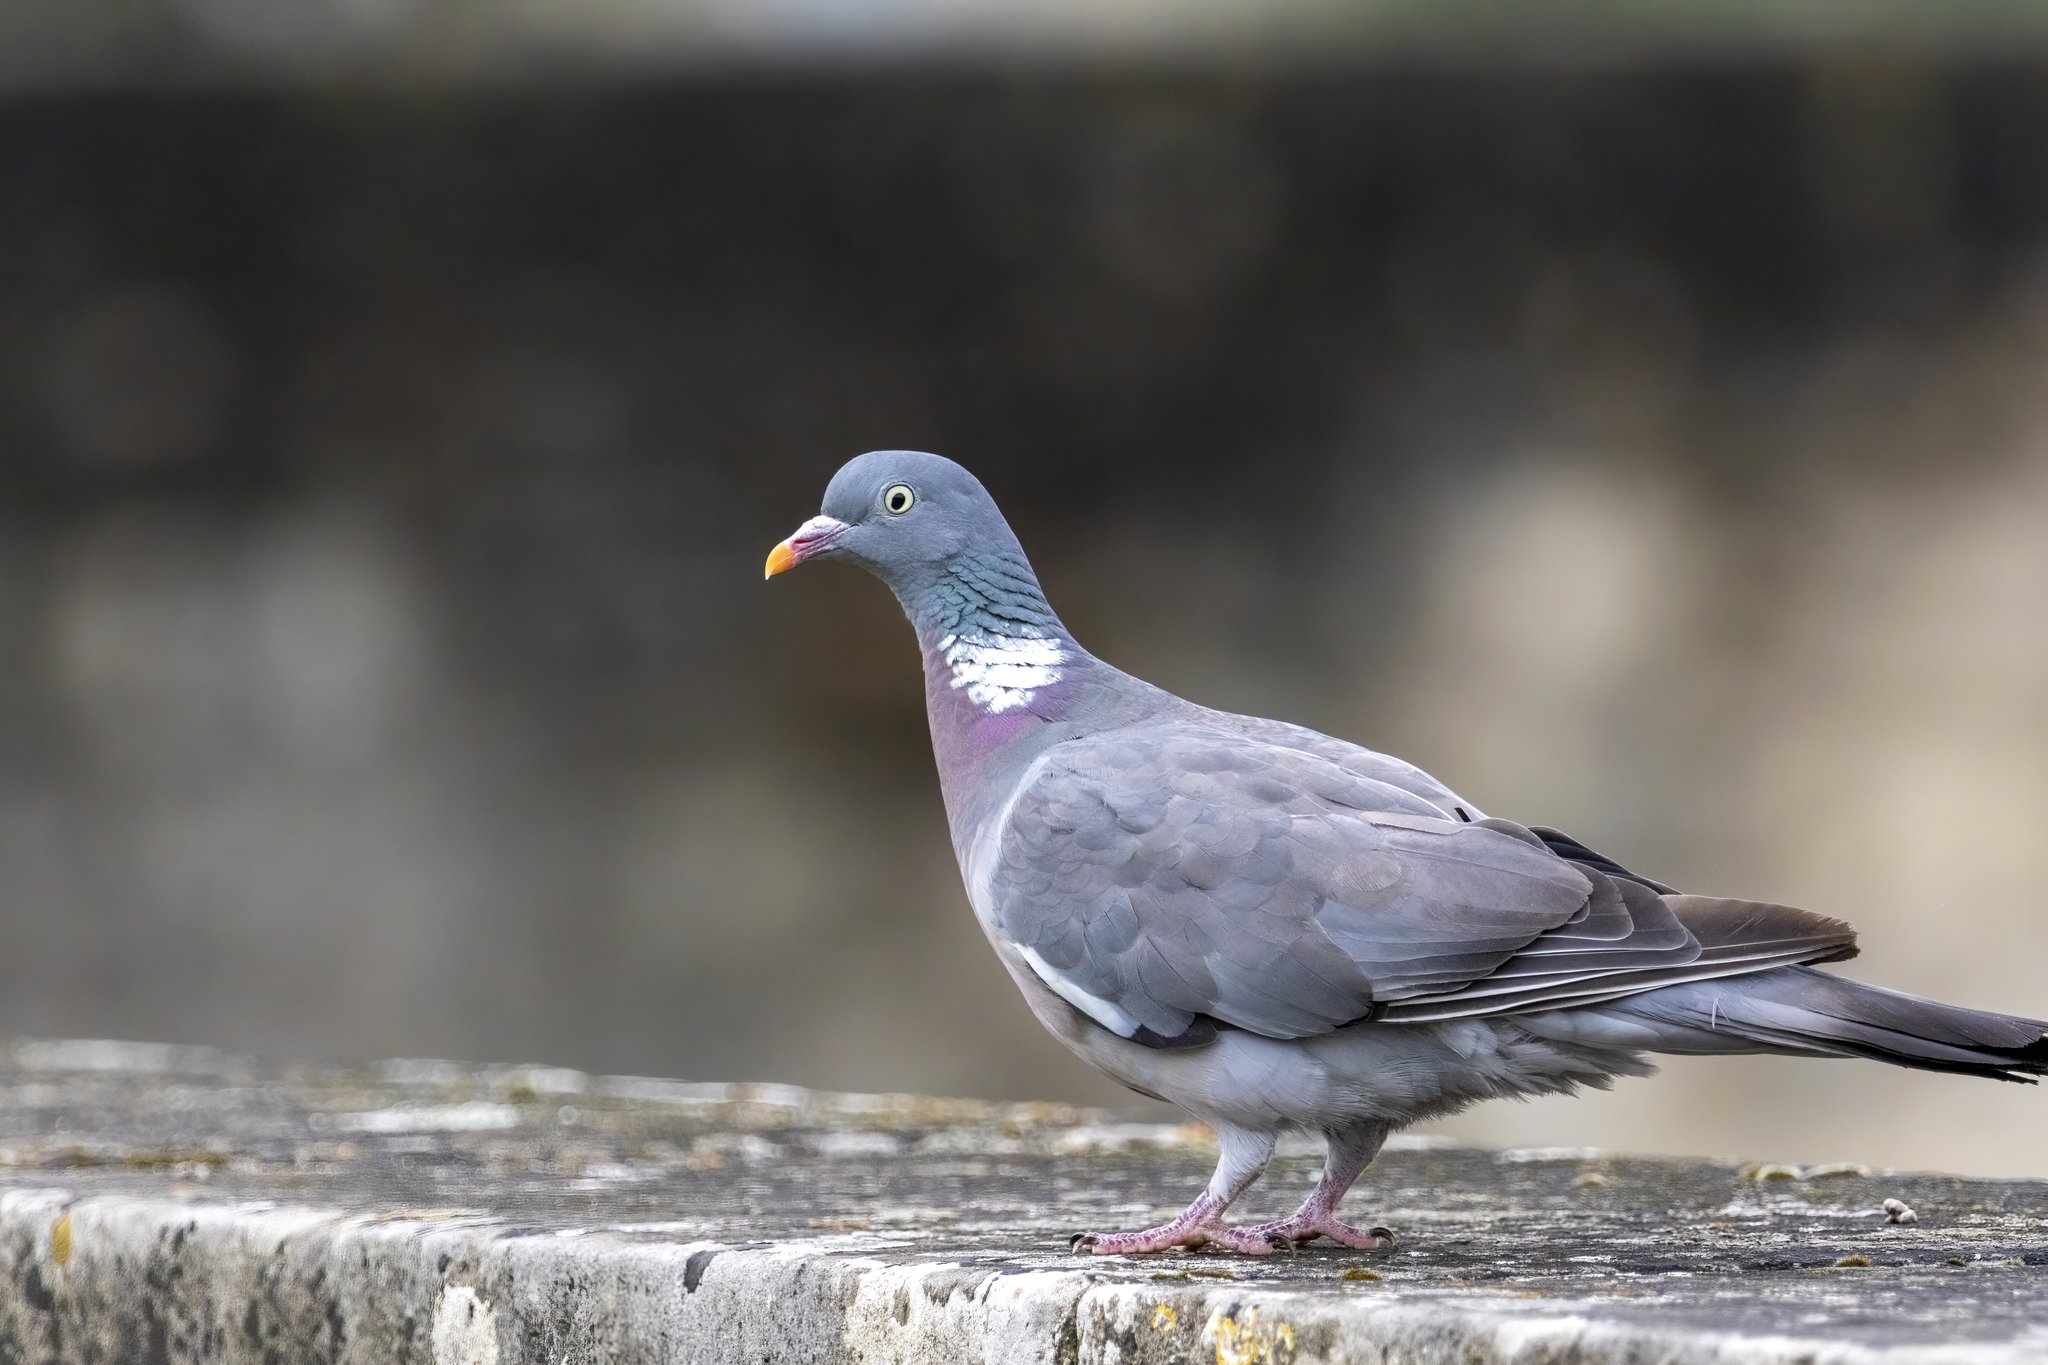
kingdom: Animalia
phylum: Chordata
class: Aves
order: Columbiformes
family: Columbidae
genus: Columba
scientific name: Columba palumbus
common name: Common wood pigeon
